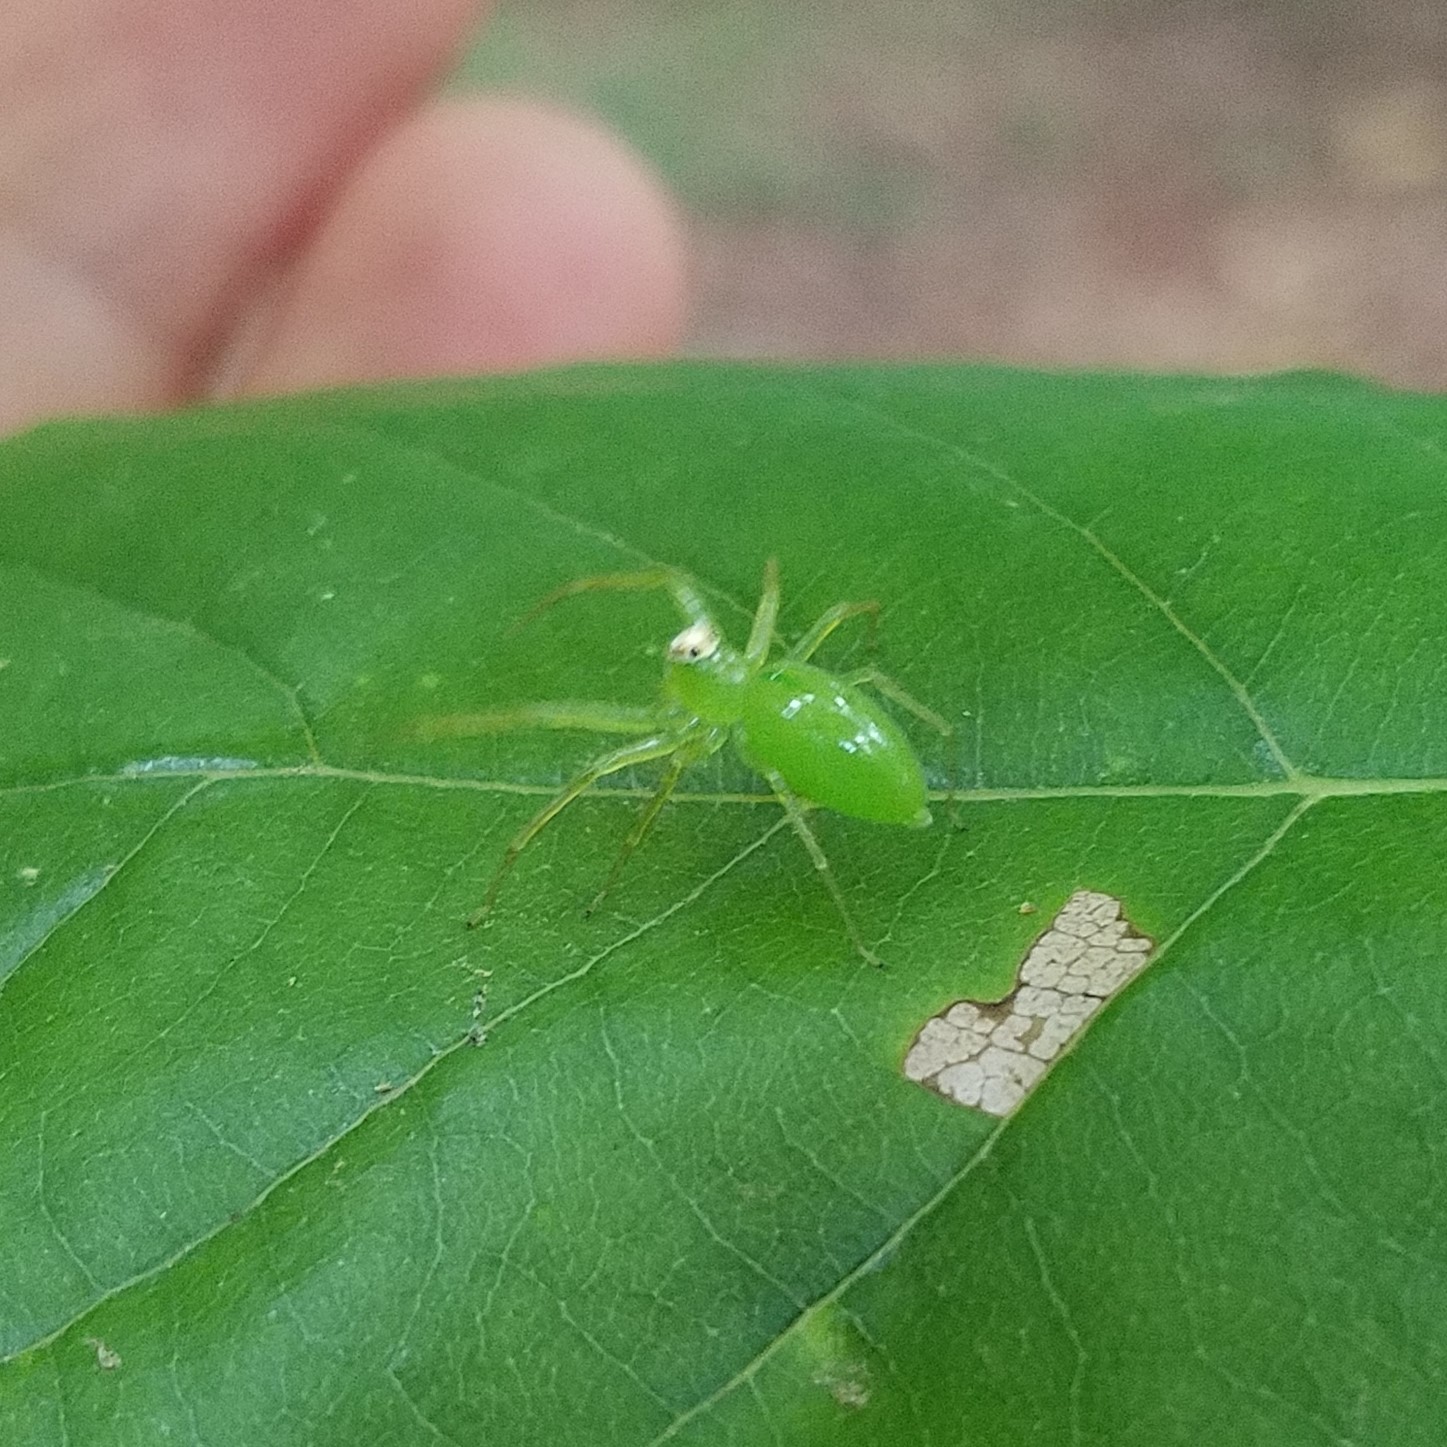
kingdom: Animalia
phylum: Arthropoda
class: Arachnida
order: Araneae
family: Salticidae
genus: Lyssomanes
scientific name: Lyssomanes viridis
